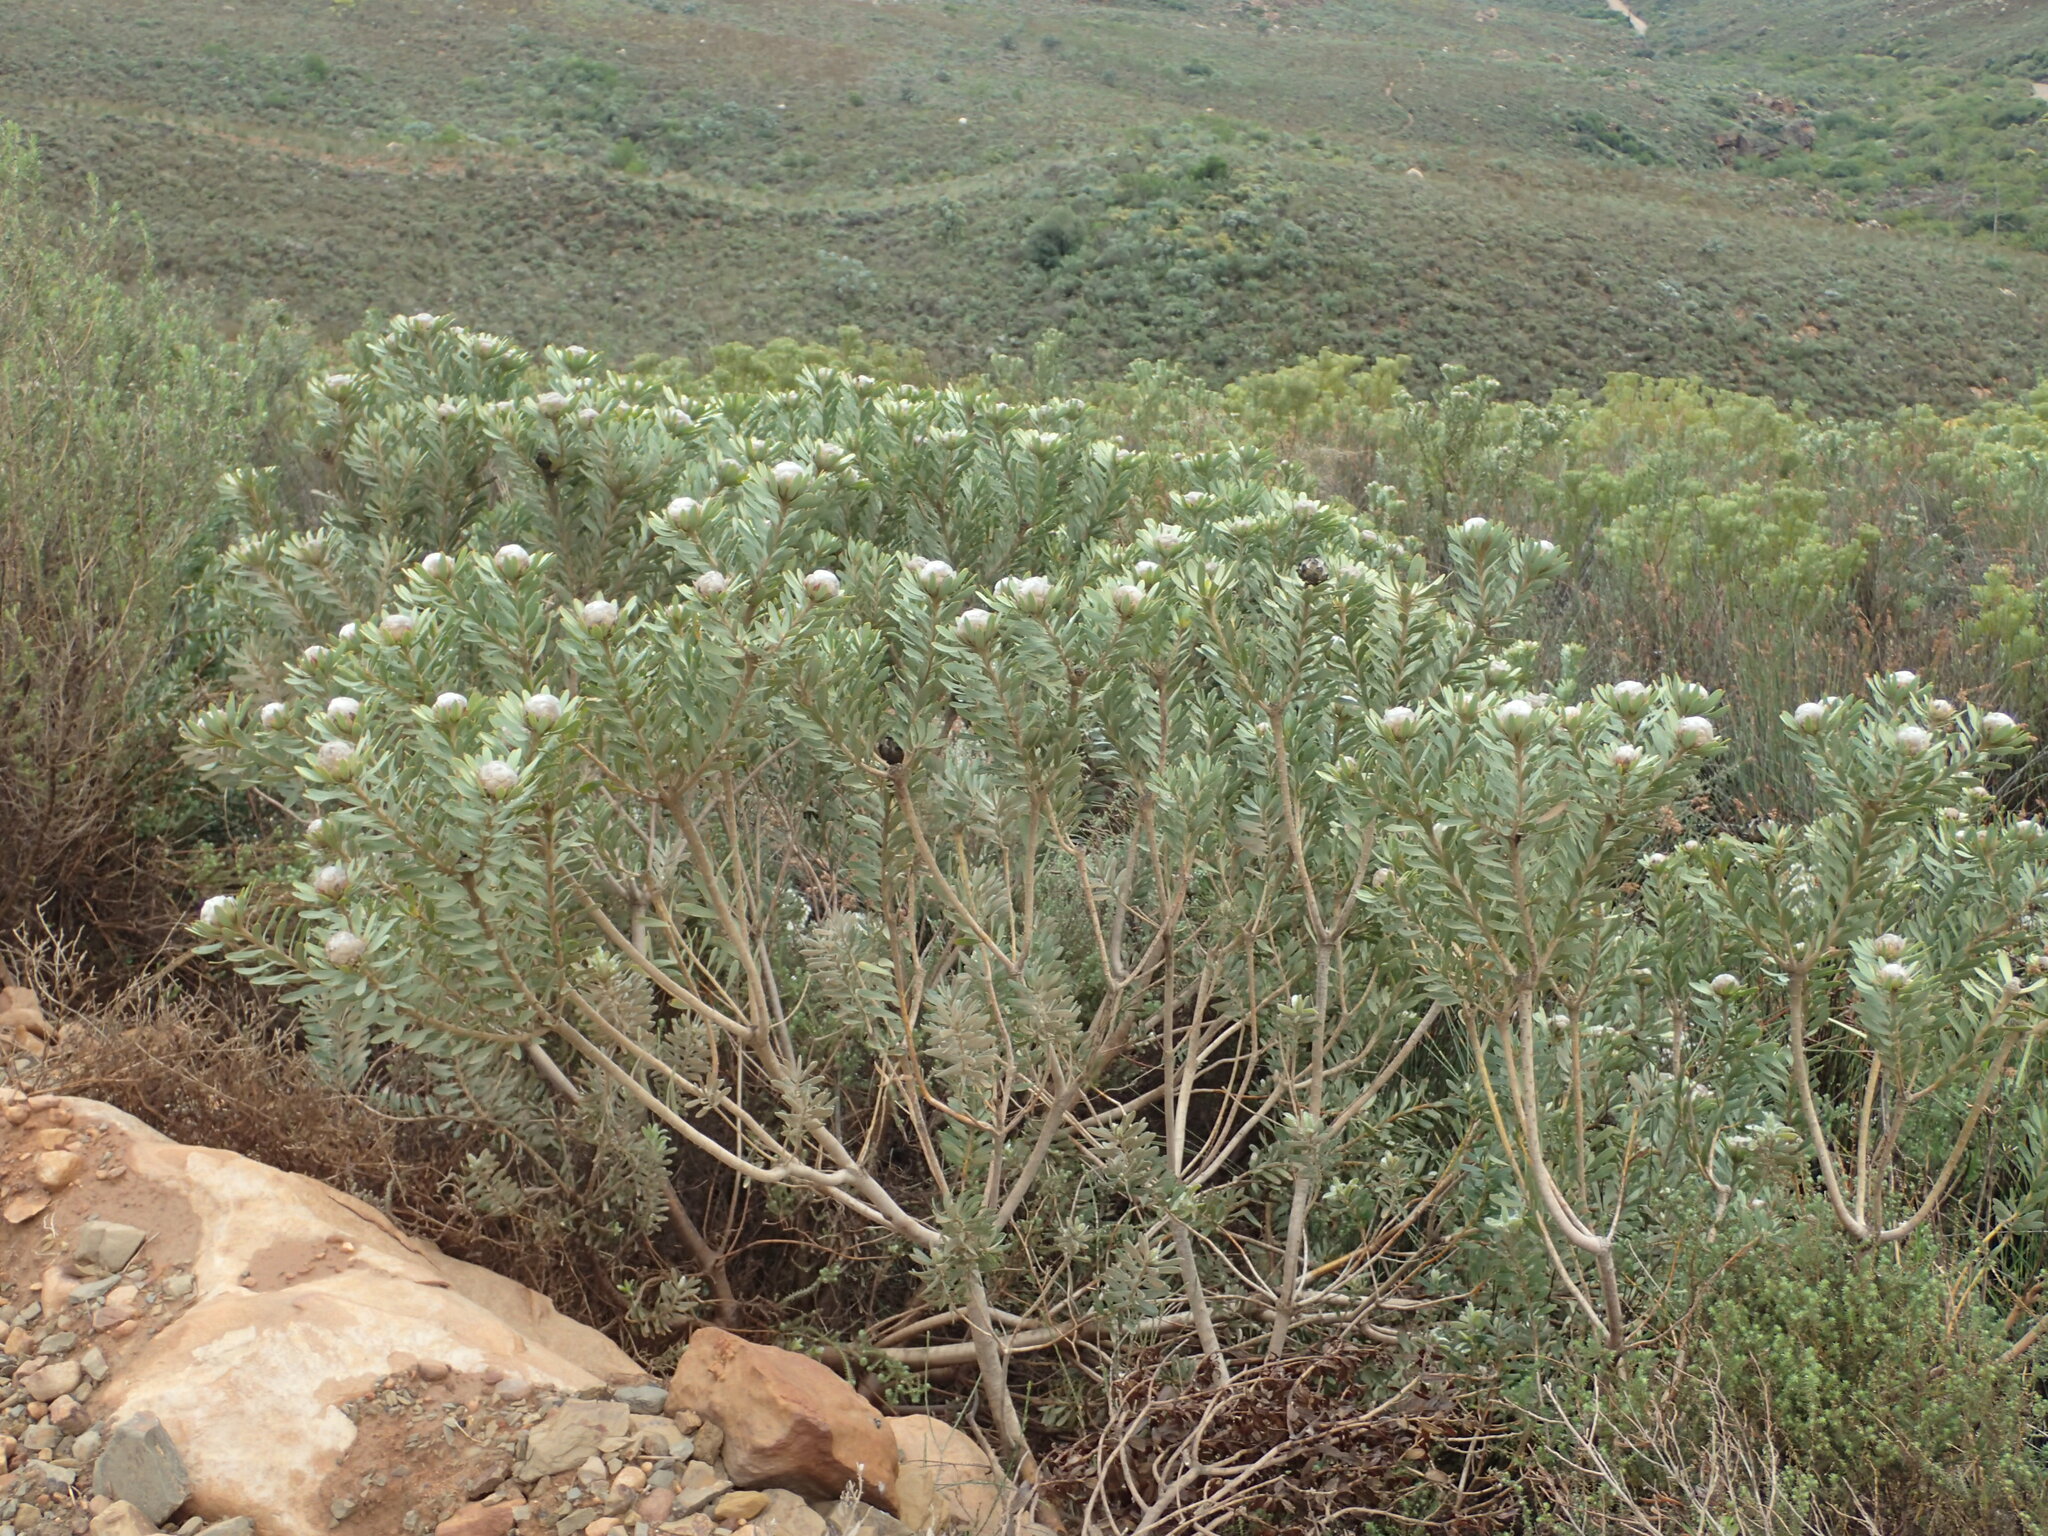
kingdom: Plantae
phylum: Tracheophyta
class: Magnoliopsida
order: Proteales
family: Proteaceae
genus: Leucadendron
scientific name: Leucadendron pubescens
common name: Grey conebush
